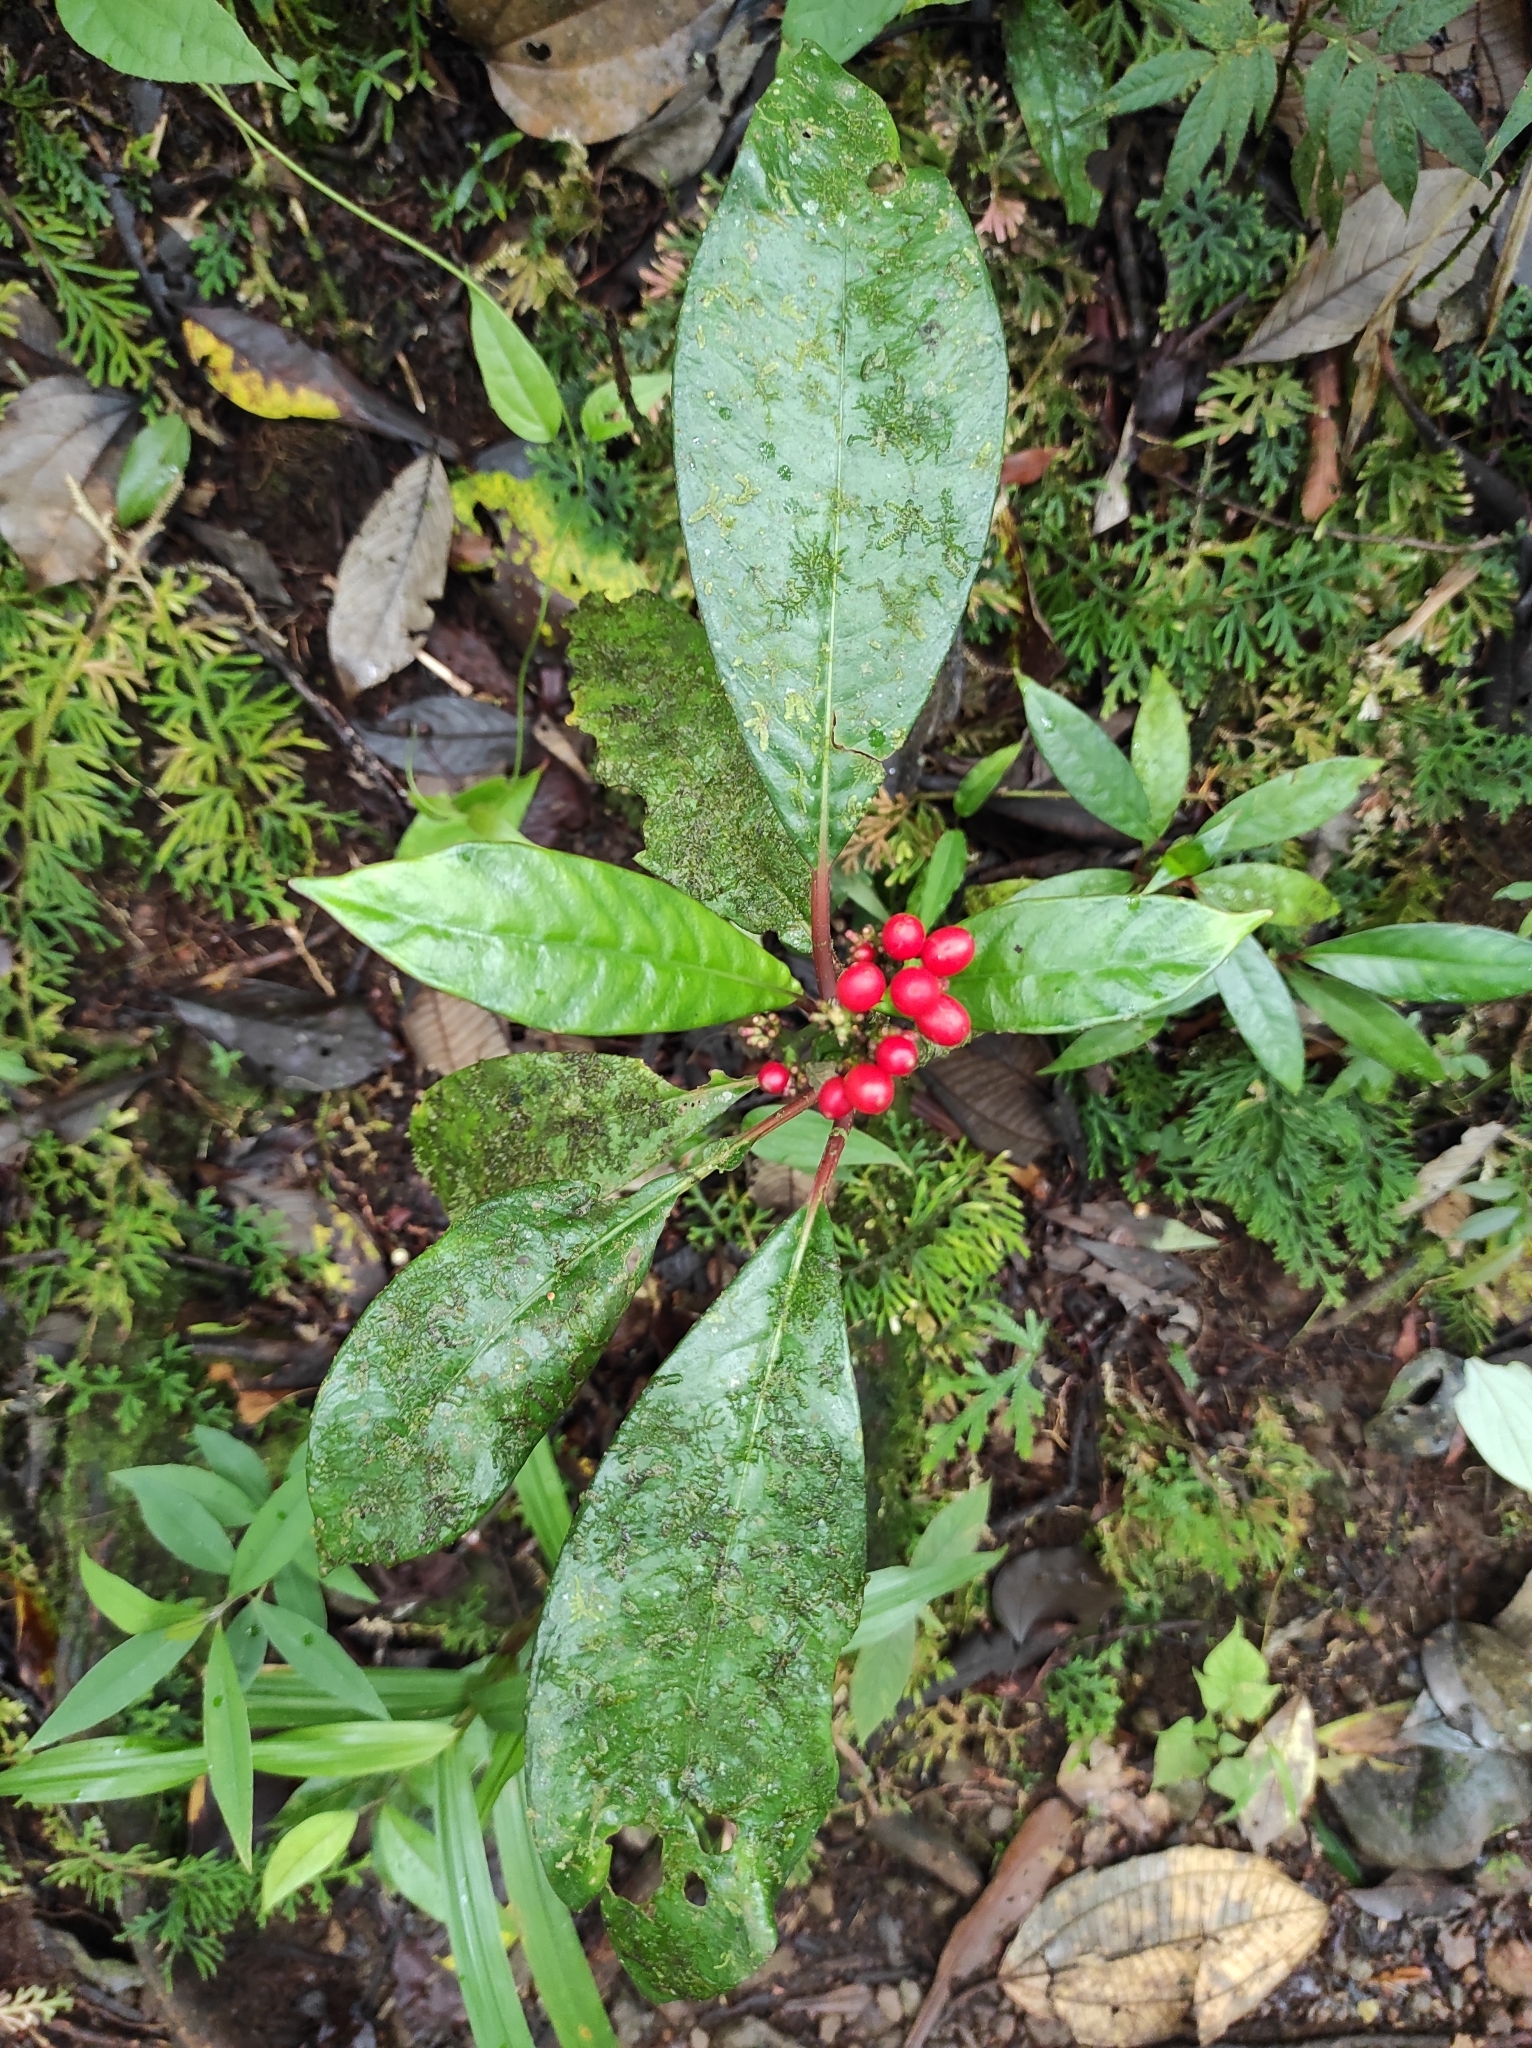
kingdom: Plantae
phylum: Tracheophyta
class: Magnoliopsida
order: Gentianales
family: Rubiaceae
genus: Notopleura
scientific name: Notopleura uliginosa
